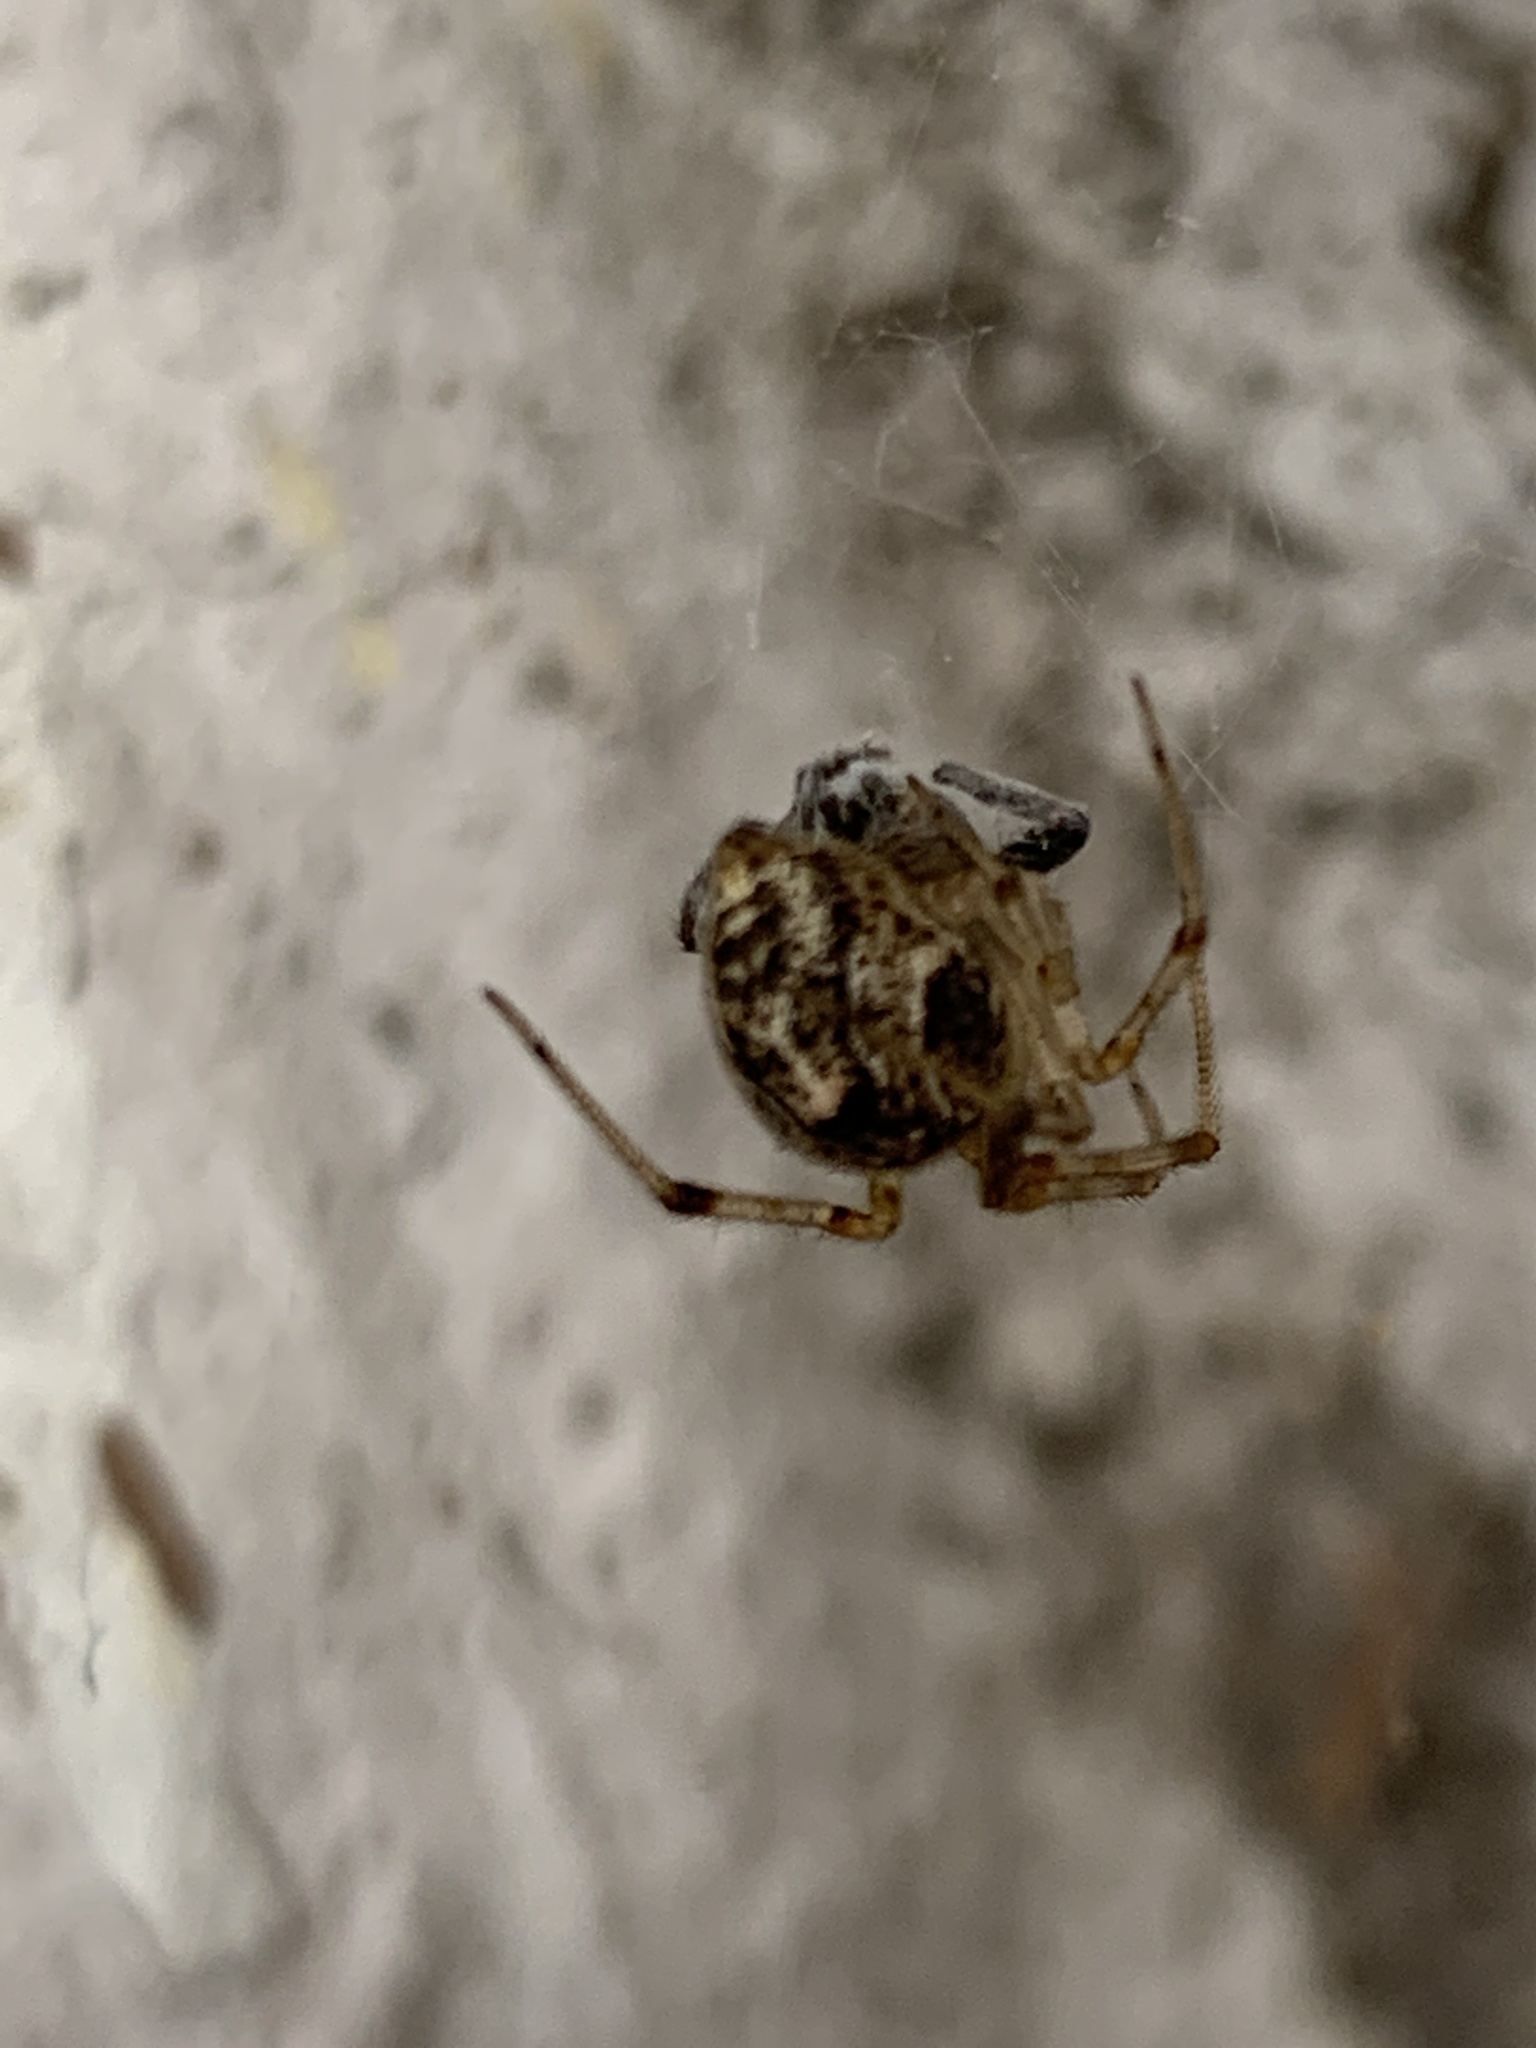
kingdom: Animalia
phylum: Arthropoda
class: Arachnida
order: Araneae
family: Theridiidae
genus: Parasteatoda
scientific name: Parasteatoda tepidariorum
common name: Common house spider
